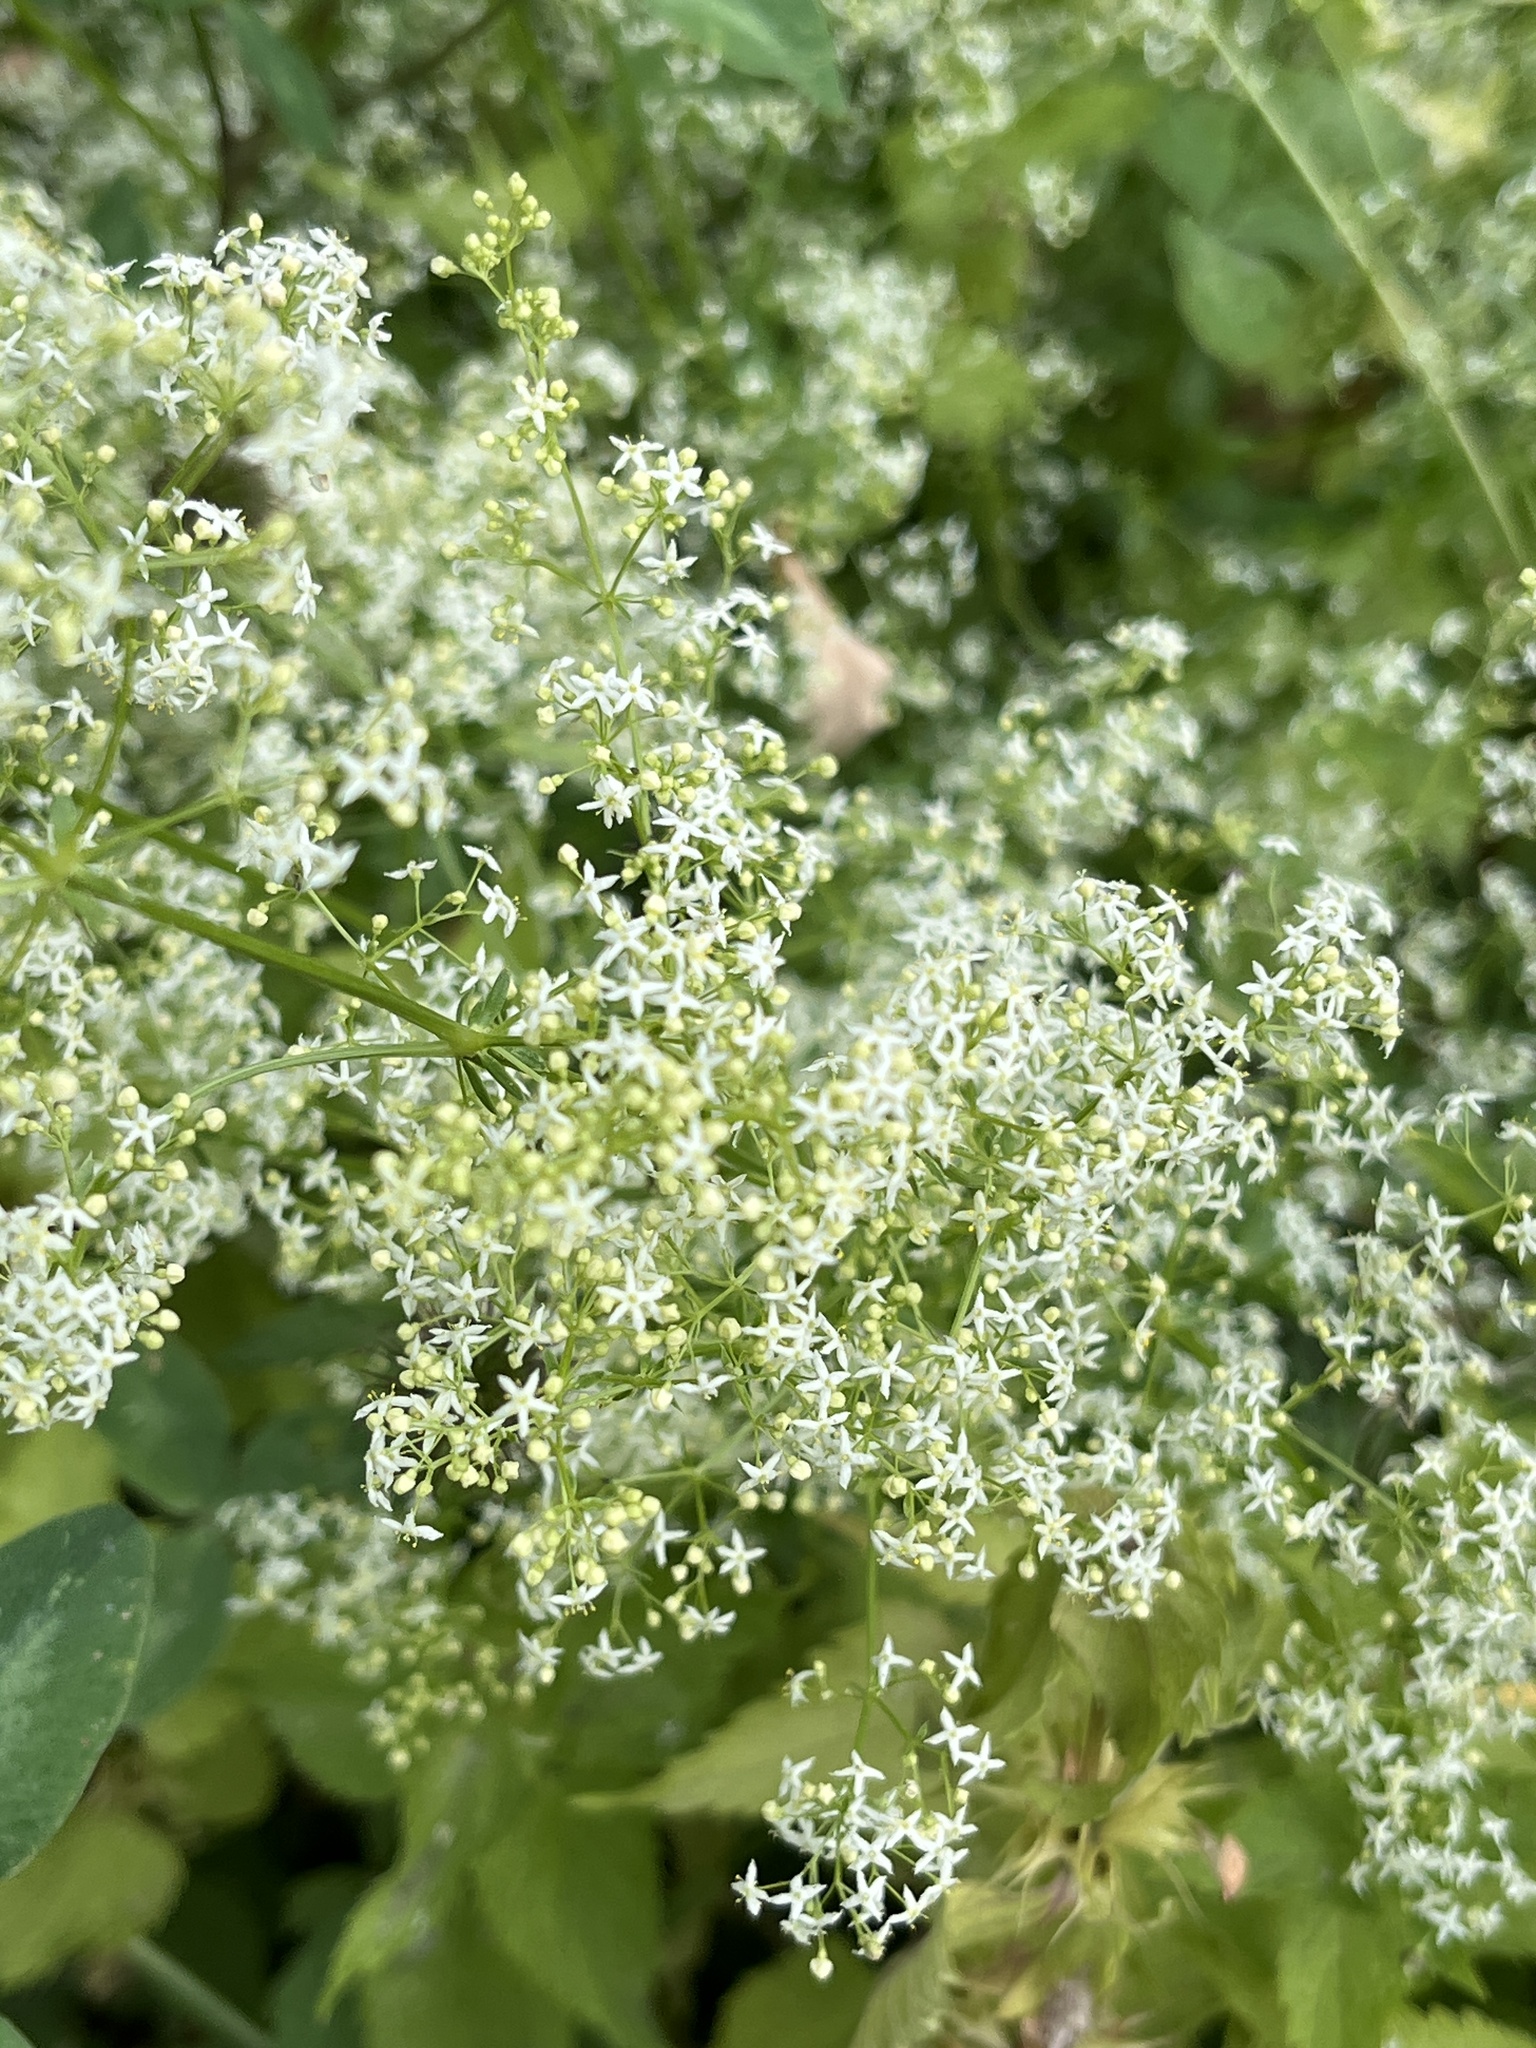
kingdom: Plantae
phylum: Tracheophyta
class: Magnoliopsida
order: Gentianales
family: Rubiaceae
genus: Galium
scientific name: Galium mollugo
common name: Hedge bedstraw
